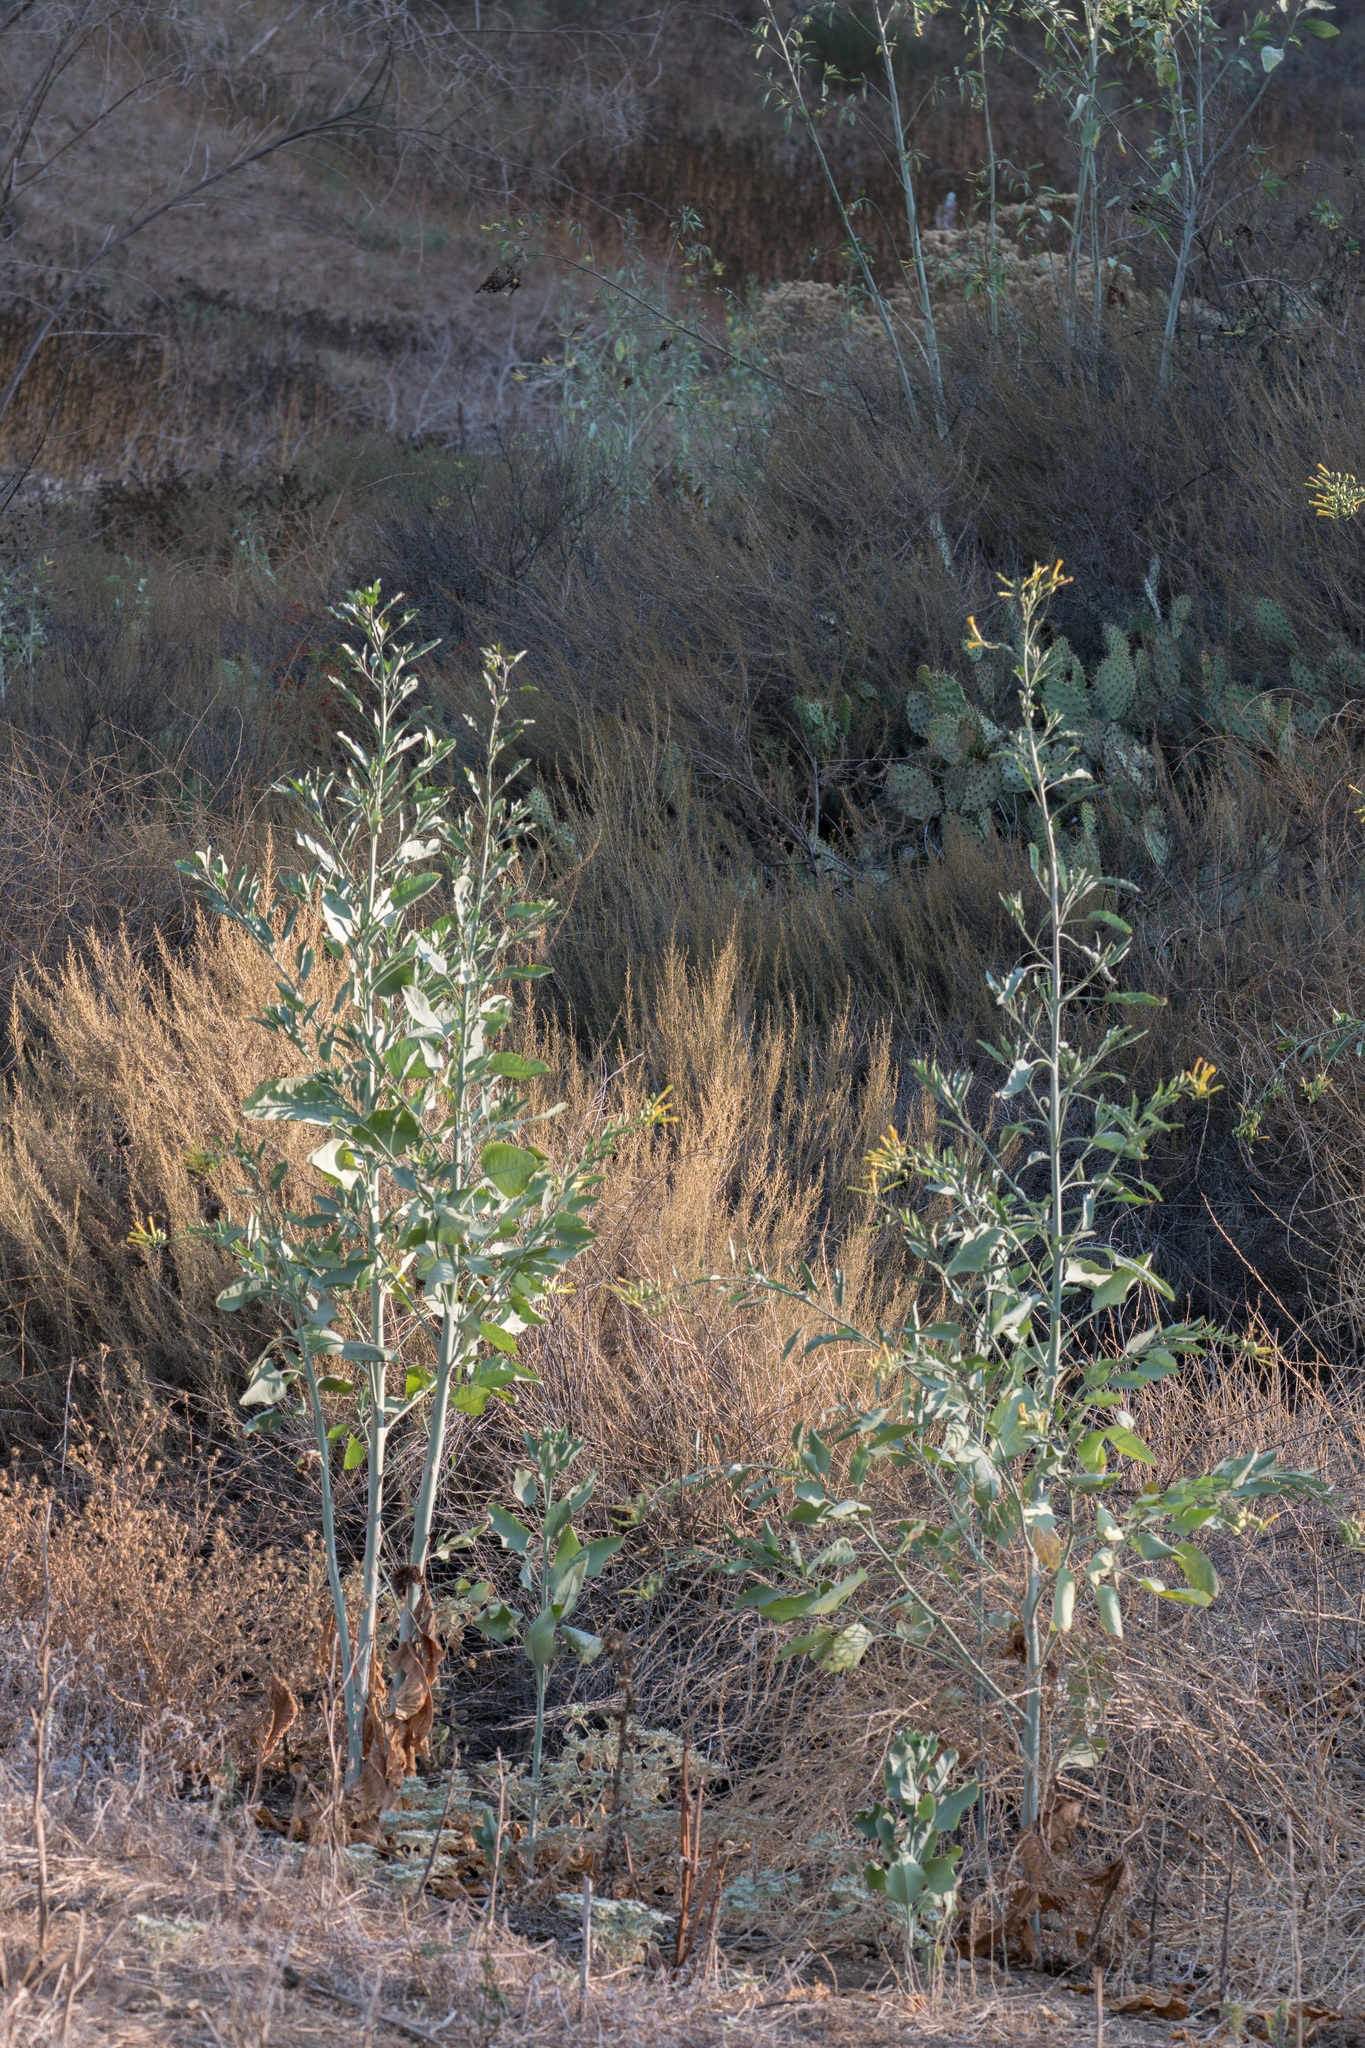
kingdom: Plantae
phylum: Tracheophyta
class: Magnoliopsida
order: Solanales
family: Solanaceae
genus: Nicotiana
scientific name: Nicotiana glauca
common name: Tree tobacco
